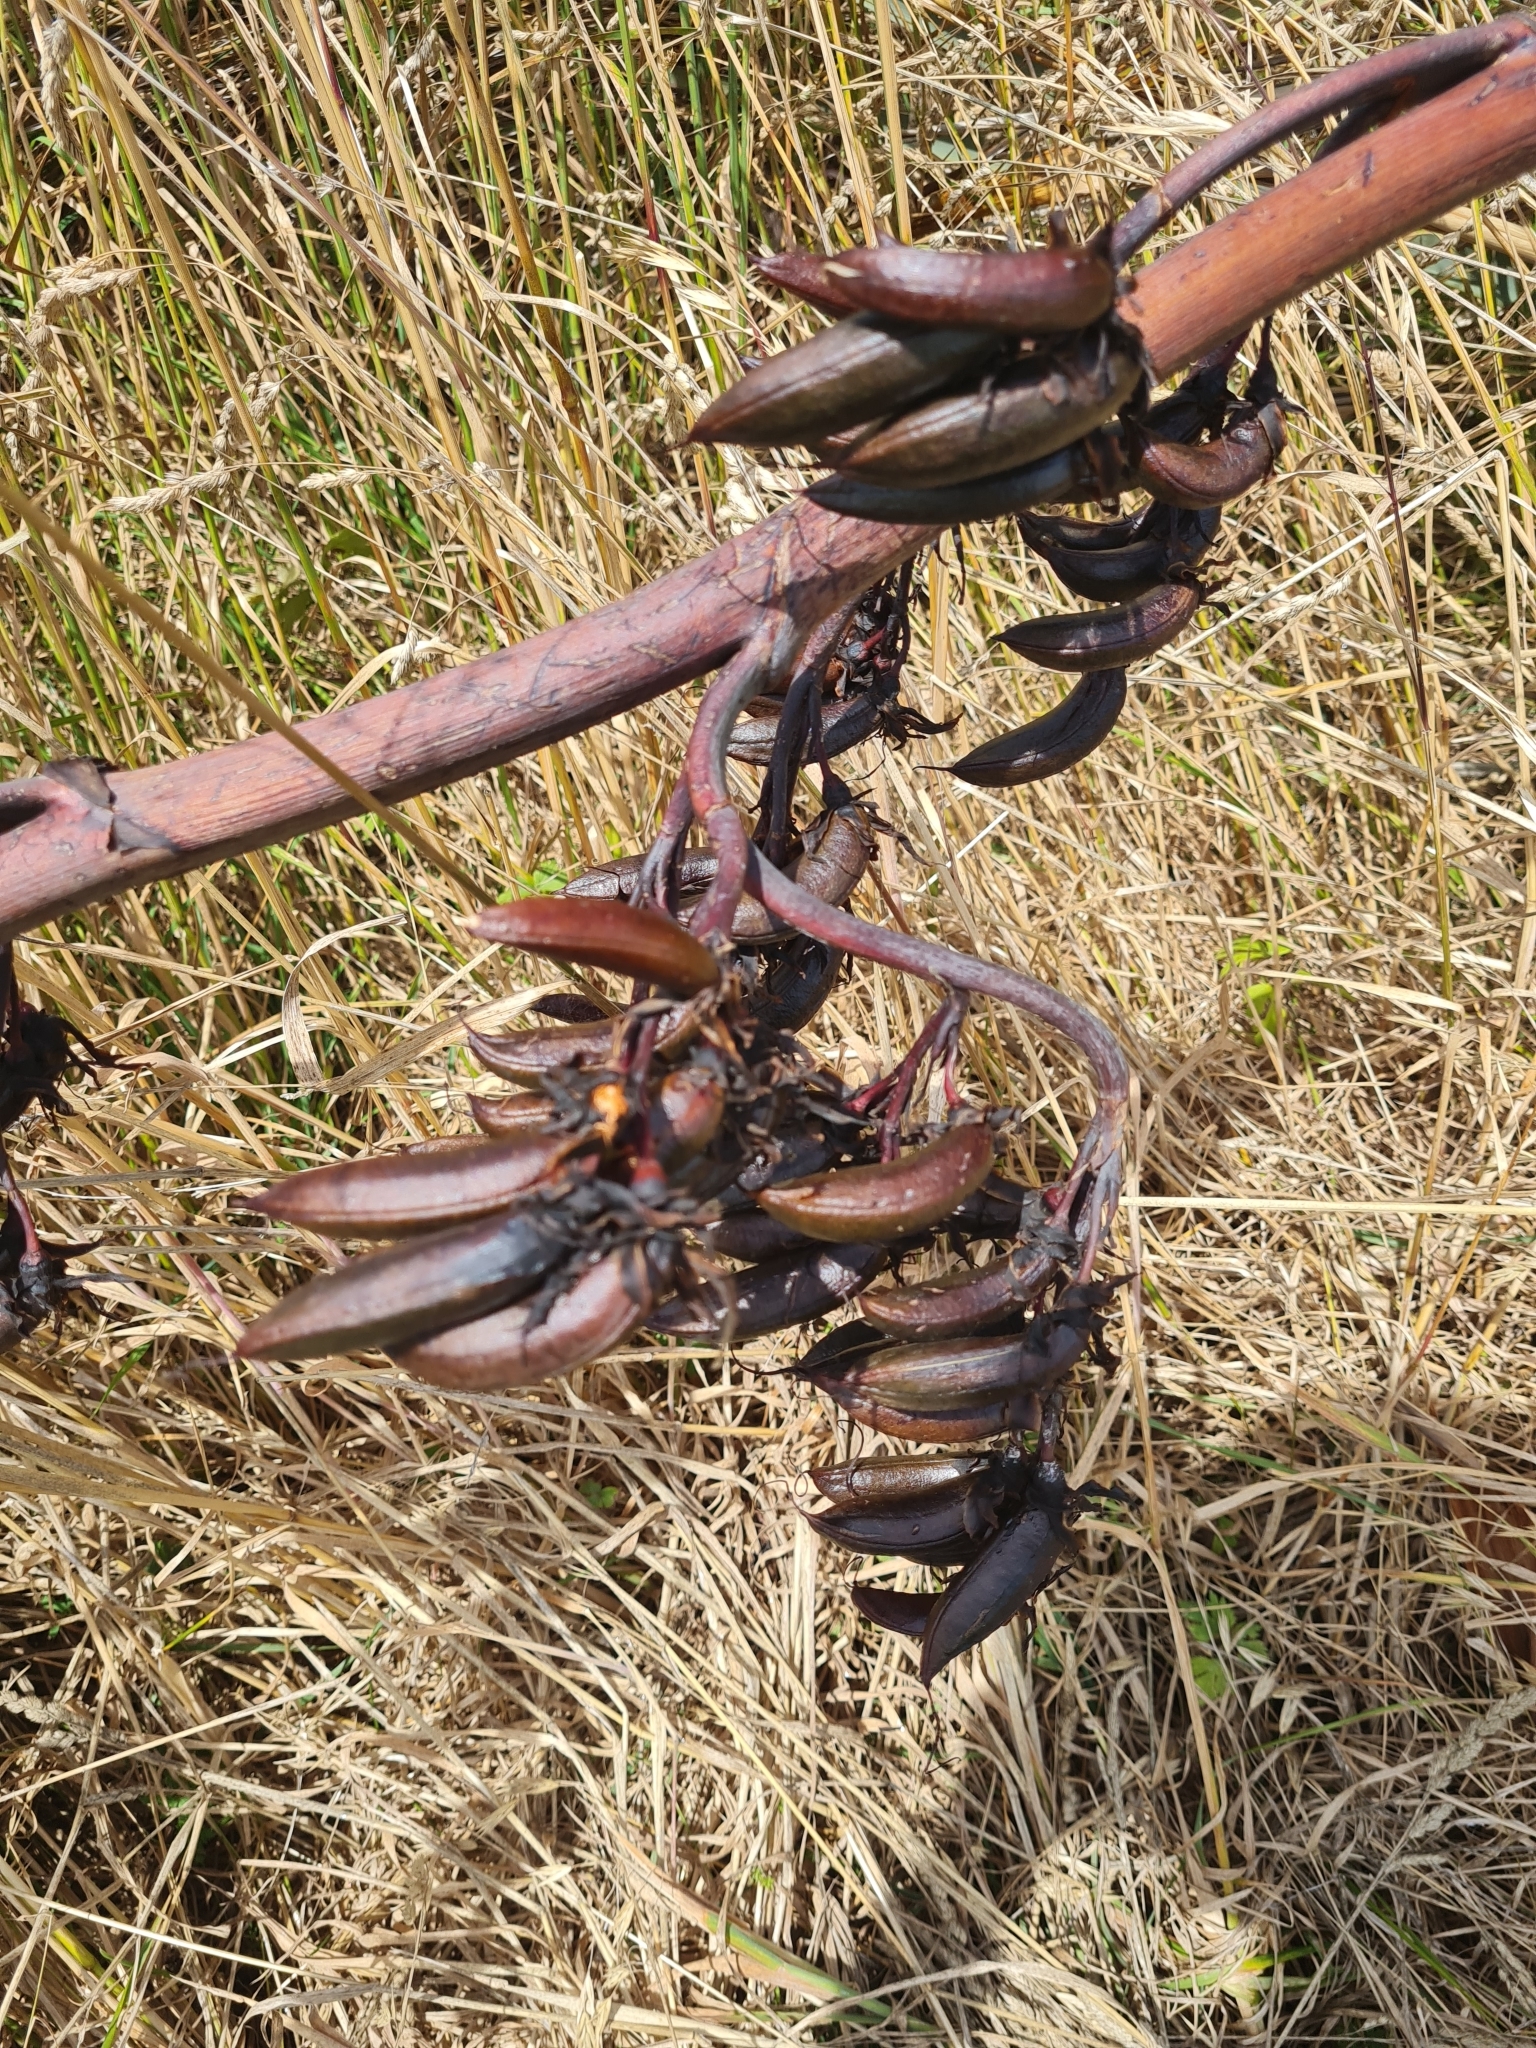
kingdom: Plantae
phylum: Tracheophyta
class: Liliopsida
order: Asparagales
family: Asphodelaceae
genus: Phormium
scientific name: Phormium tenax
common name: New zealand flax
